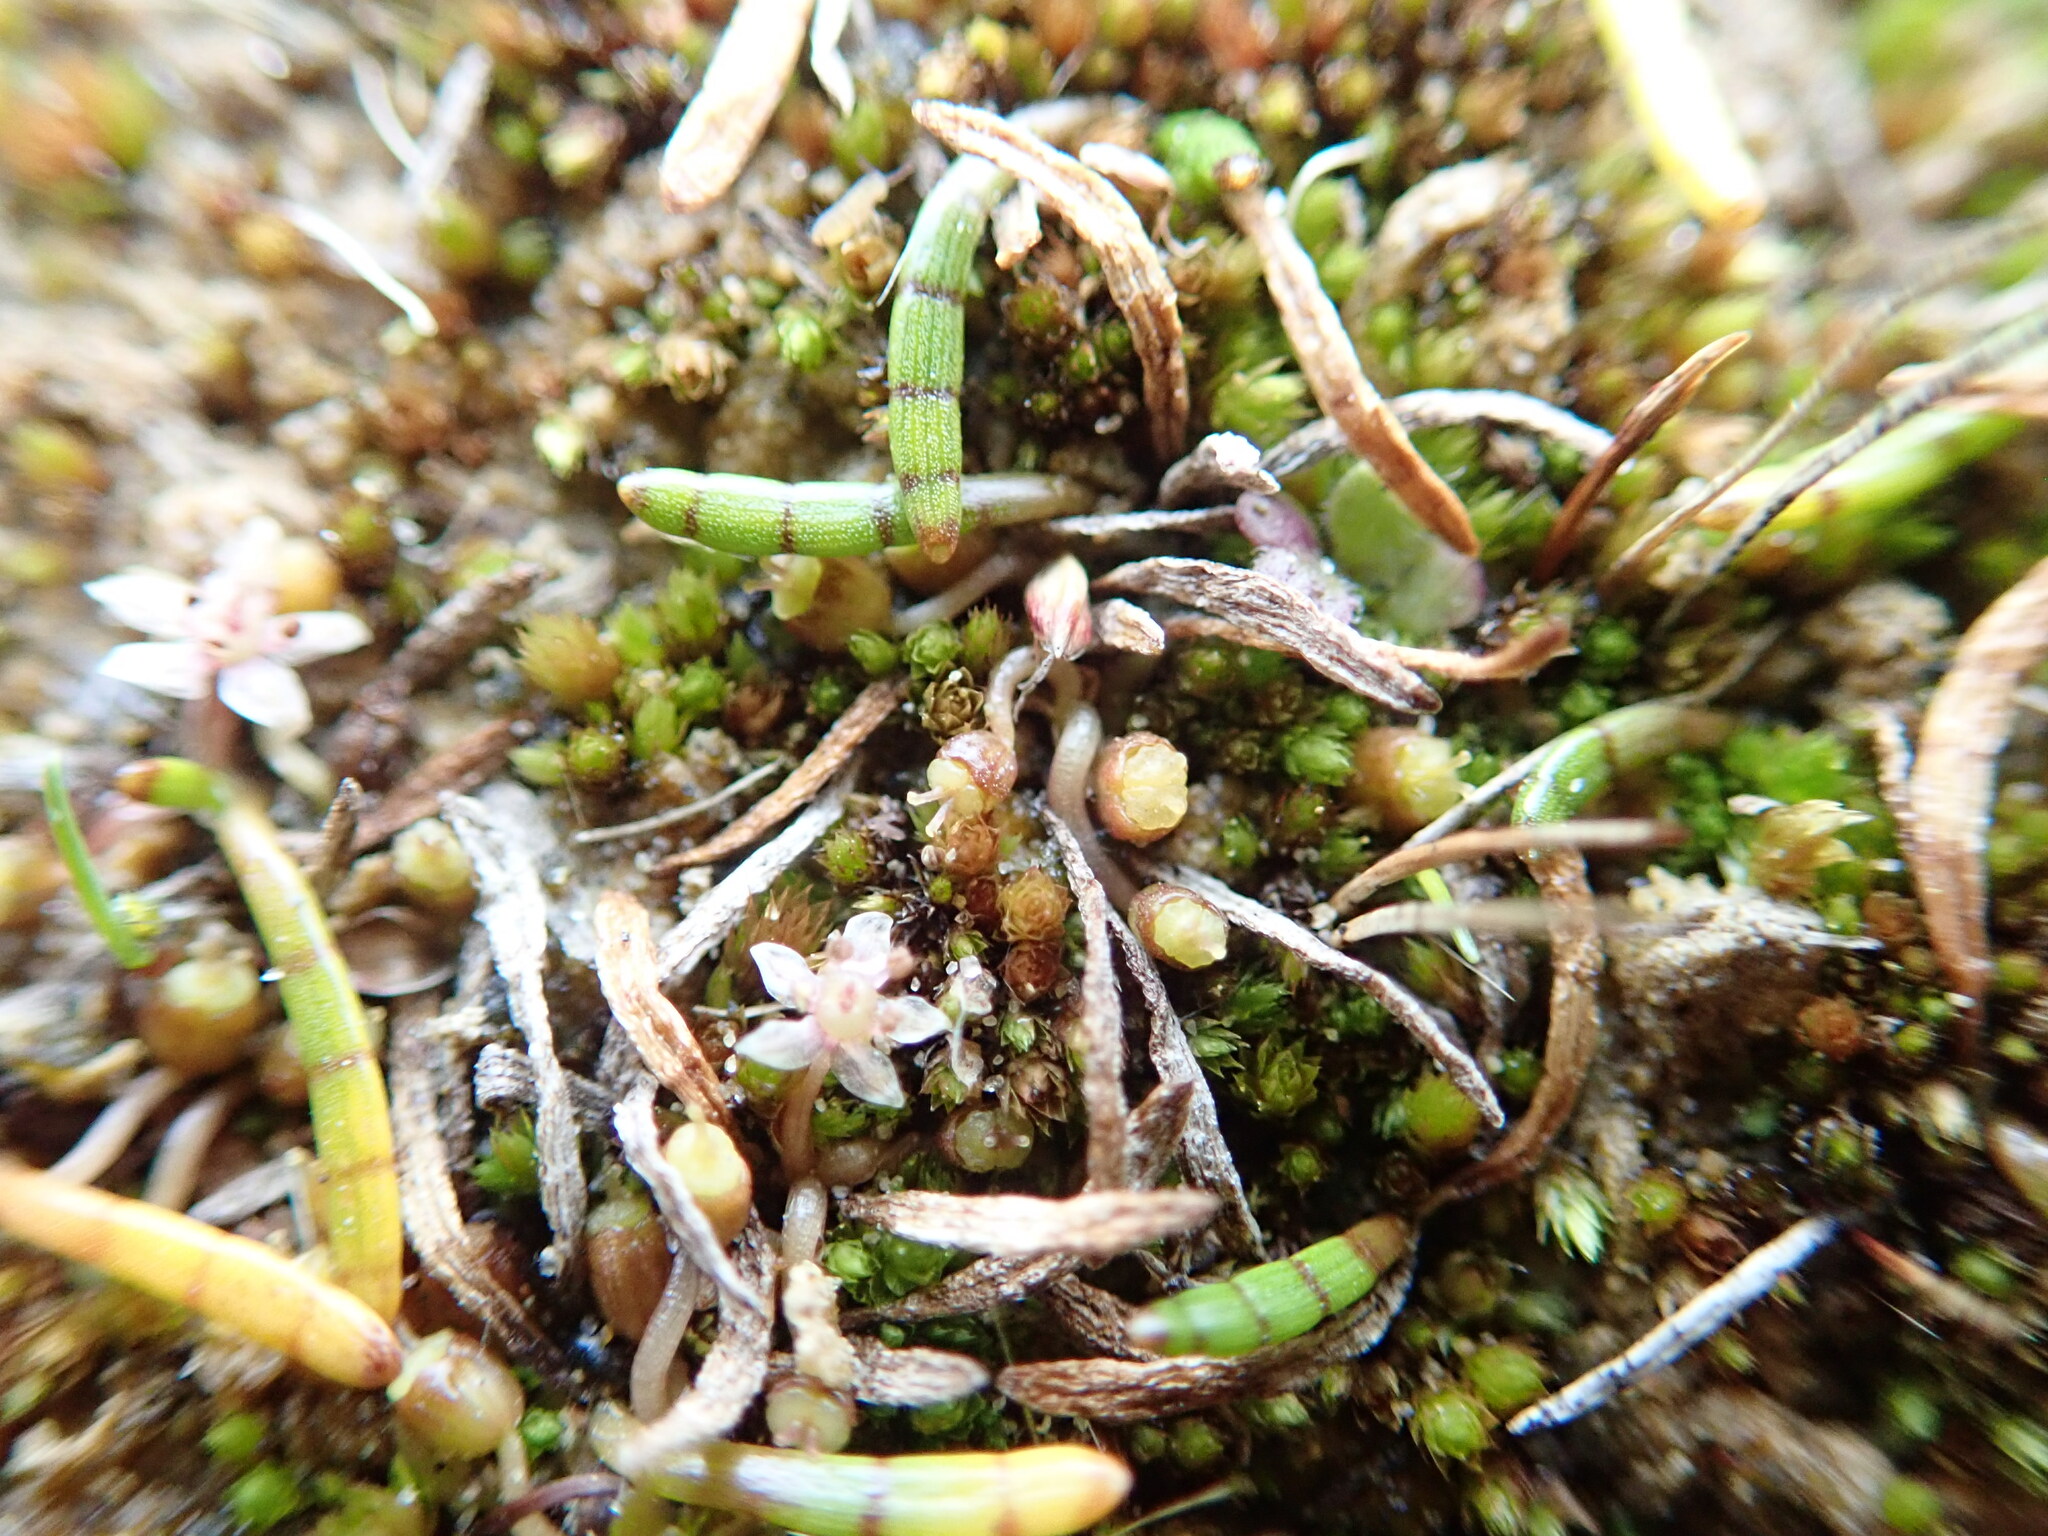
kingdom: Plantae
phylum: Tracheophyta
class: Magnoliopsida
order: Apiales
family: Apiaceae
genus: Lilaeopsis
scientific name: Lilaeopsis novae-zelandiae
